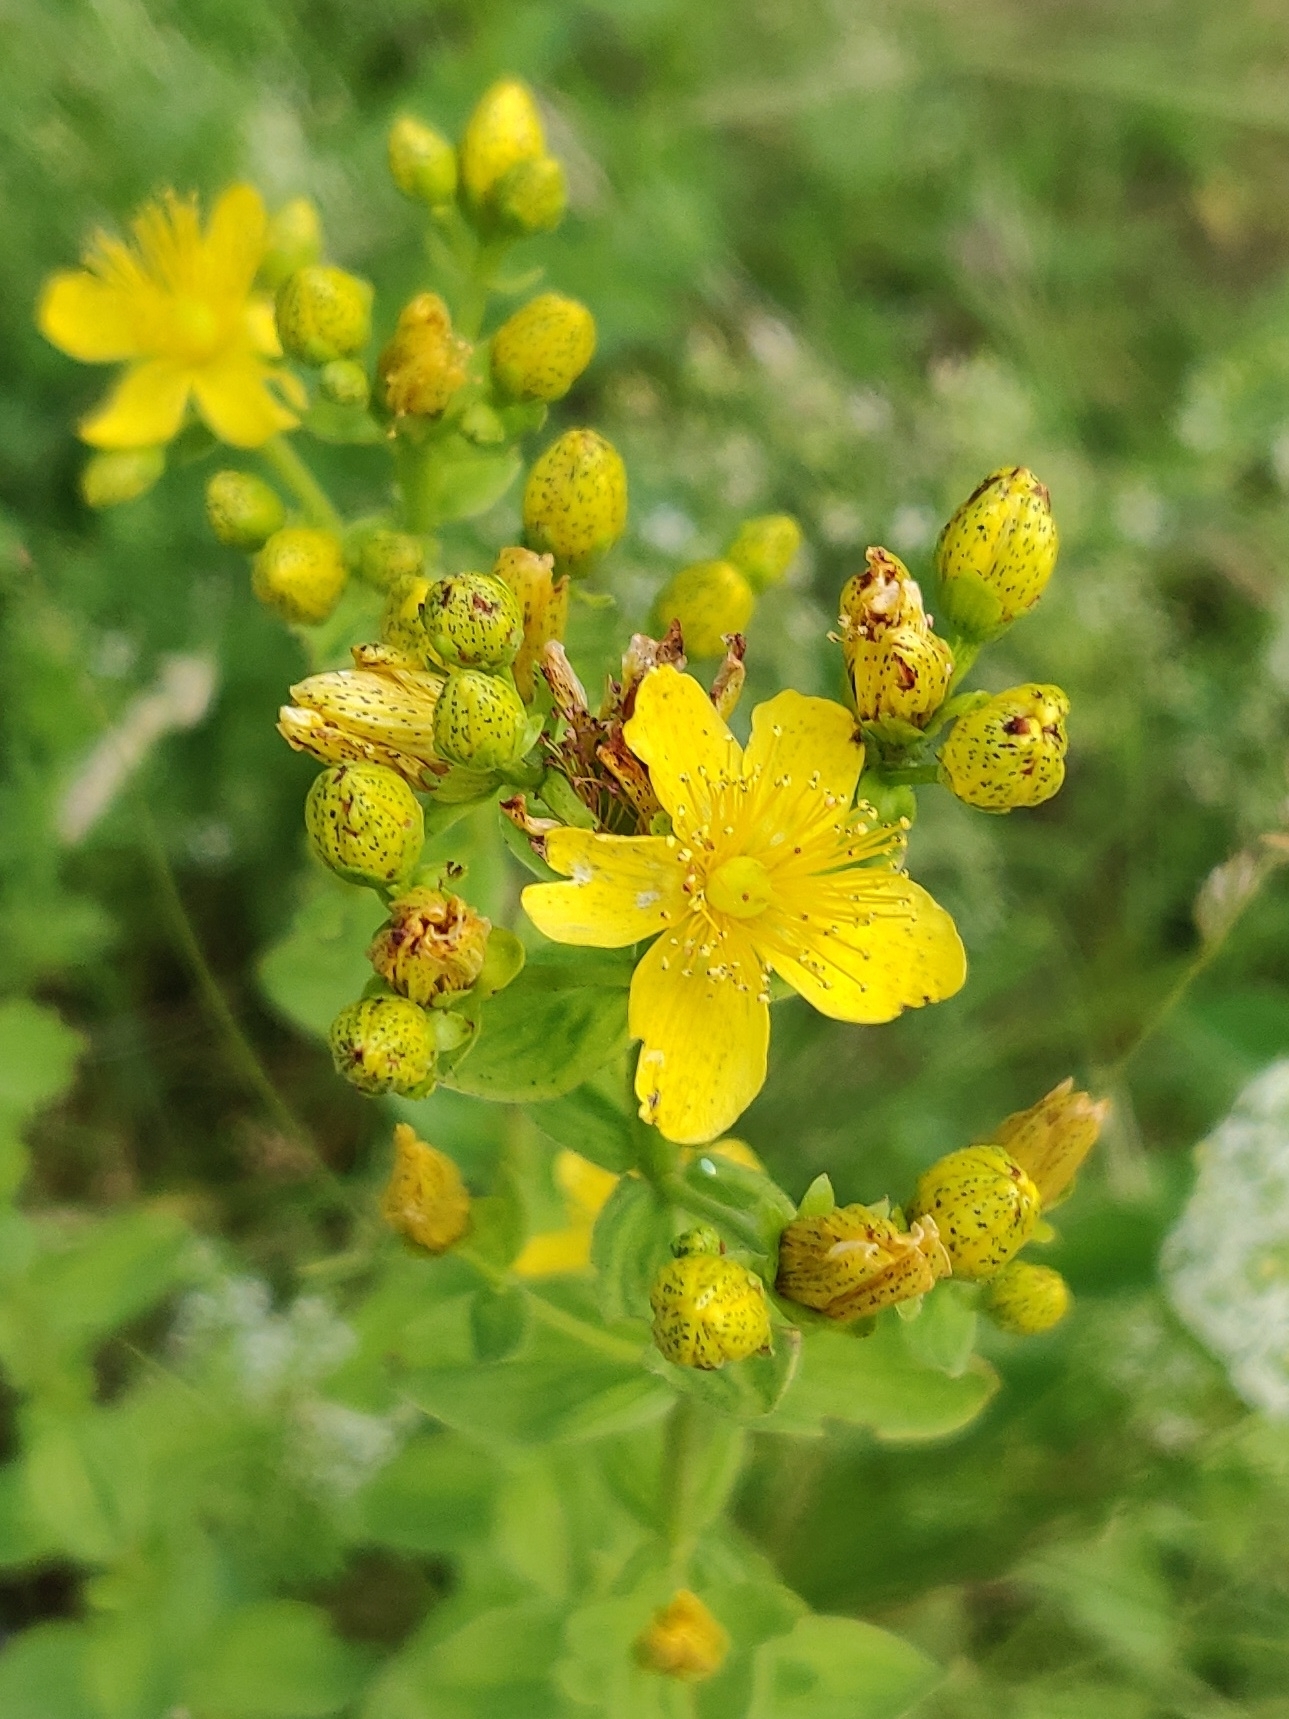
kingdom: Plantae
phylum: Tracheophyta
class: Magnoliopsida
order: Malpighiales
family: Hypericaceae
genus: Hypericum
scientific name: Hypericum maculatum
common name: Imperforate st. john's-wort
